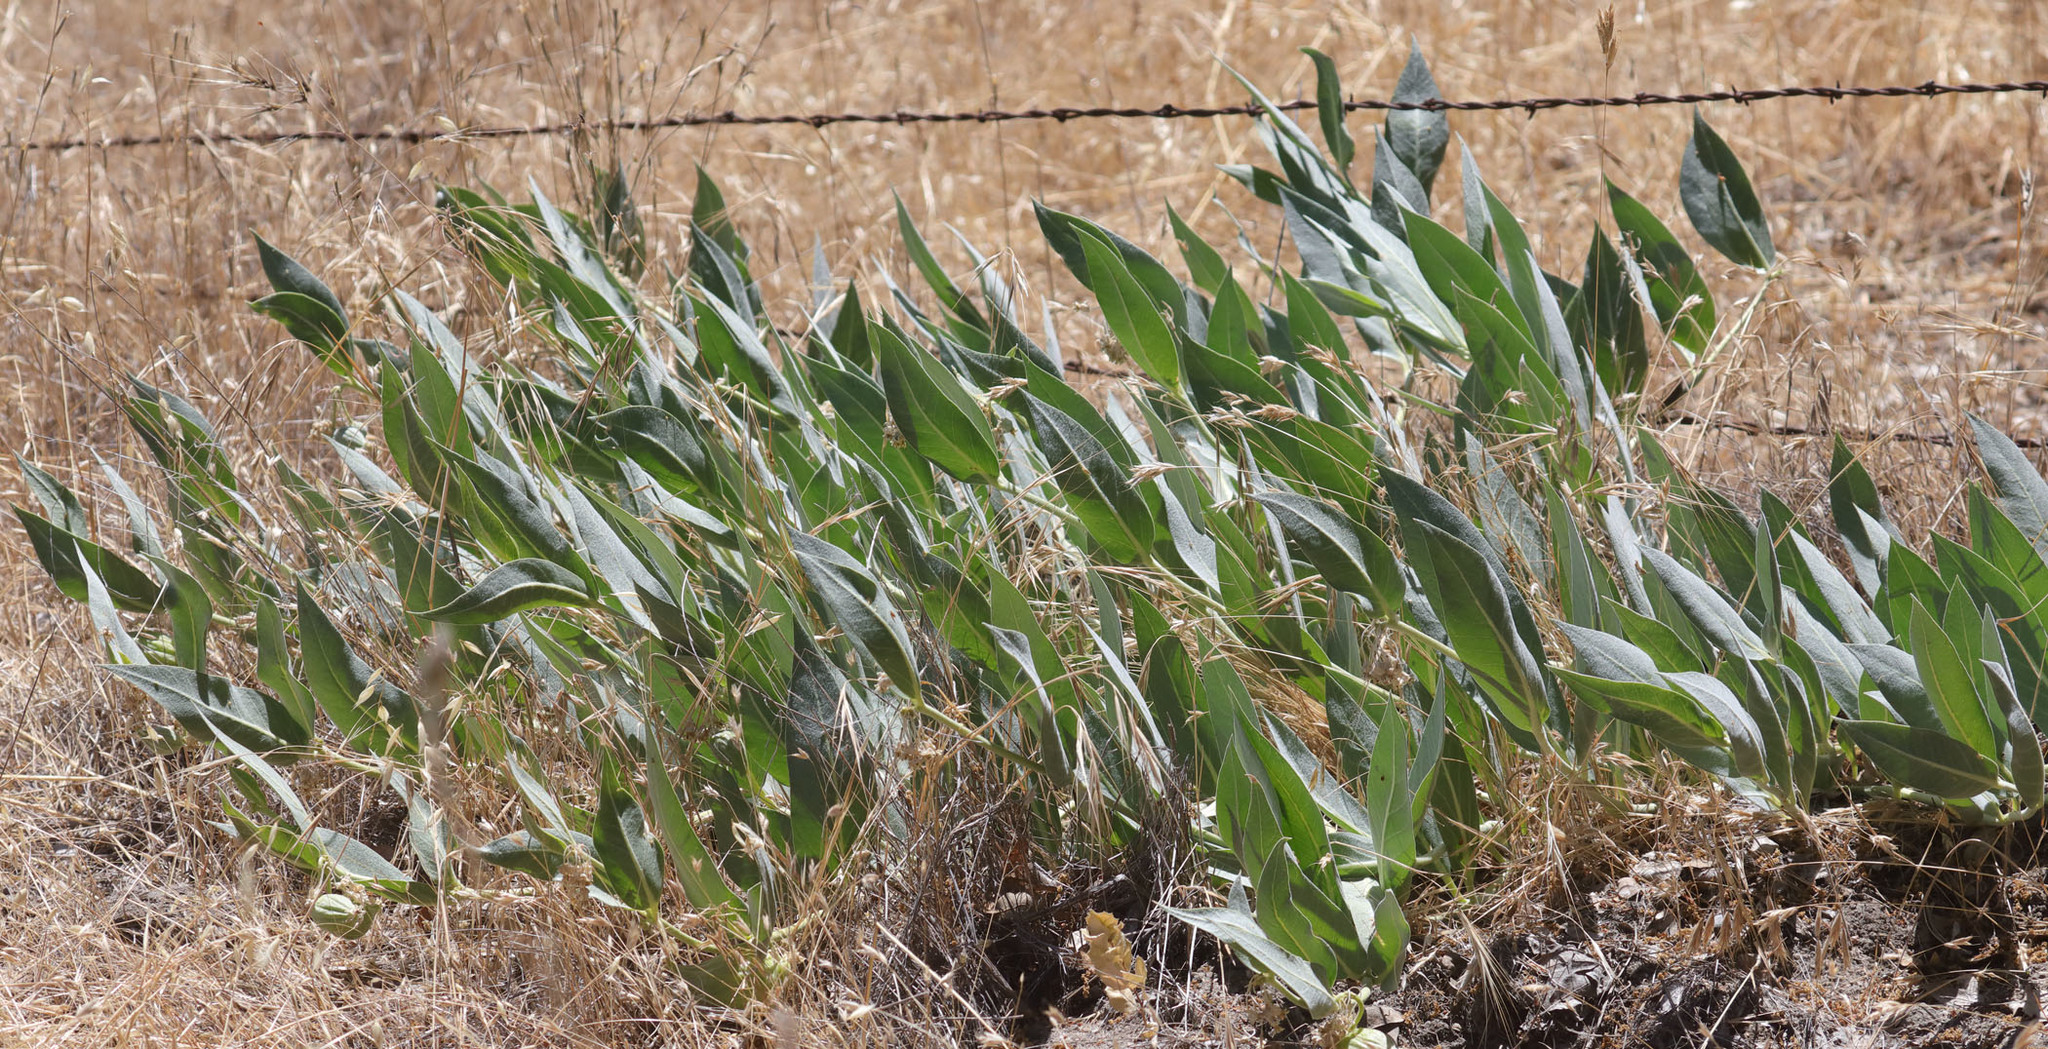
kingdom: Plantae
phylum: Tracheophyta
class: Magnoliopsida
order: Gentianales
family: Apocynaceae
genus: Asclepias
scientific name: Asclepias vestita
